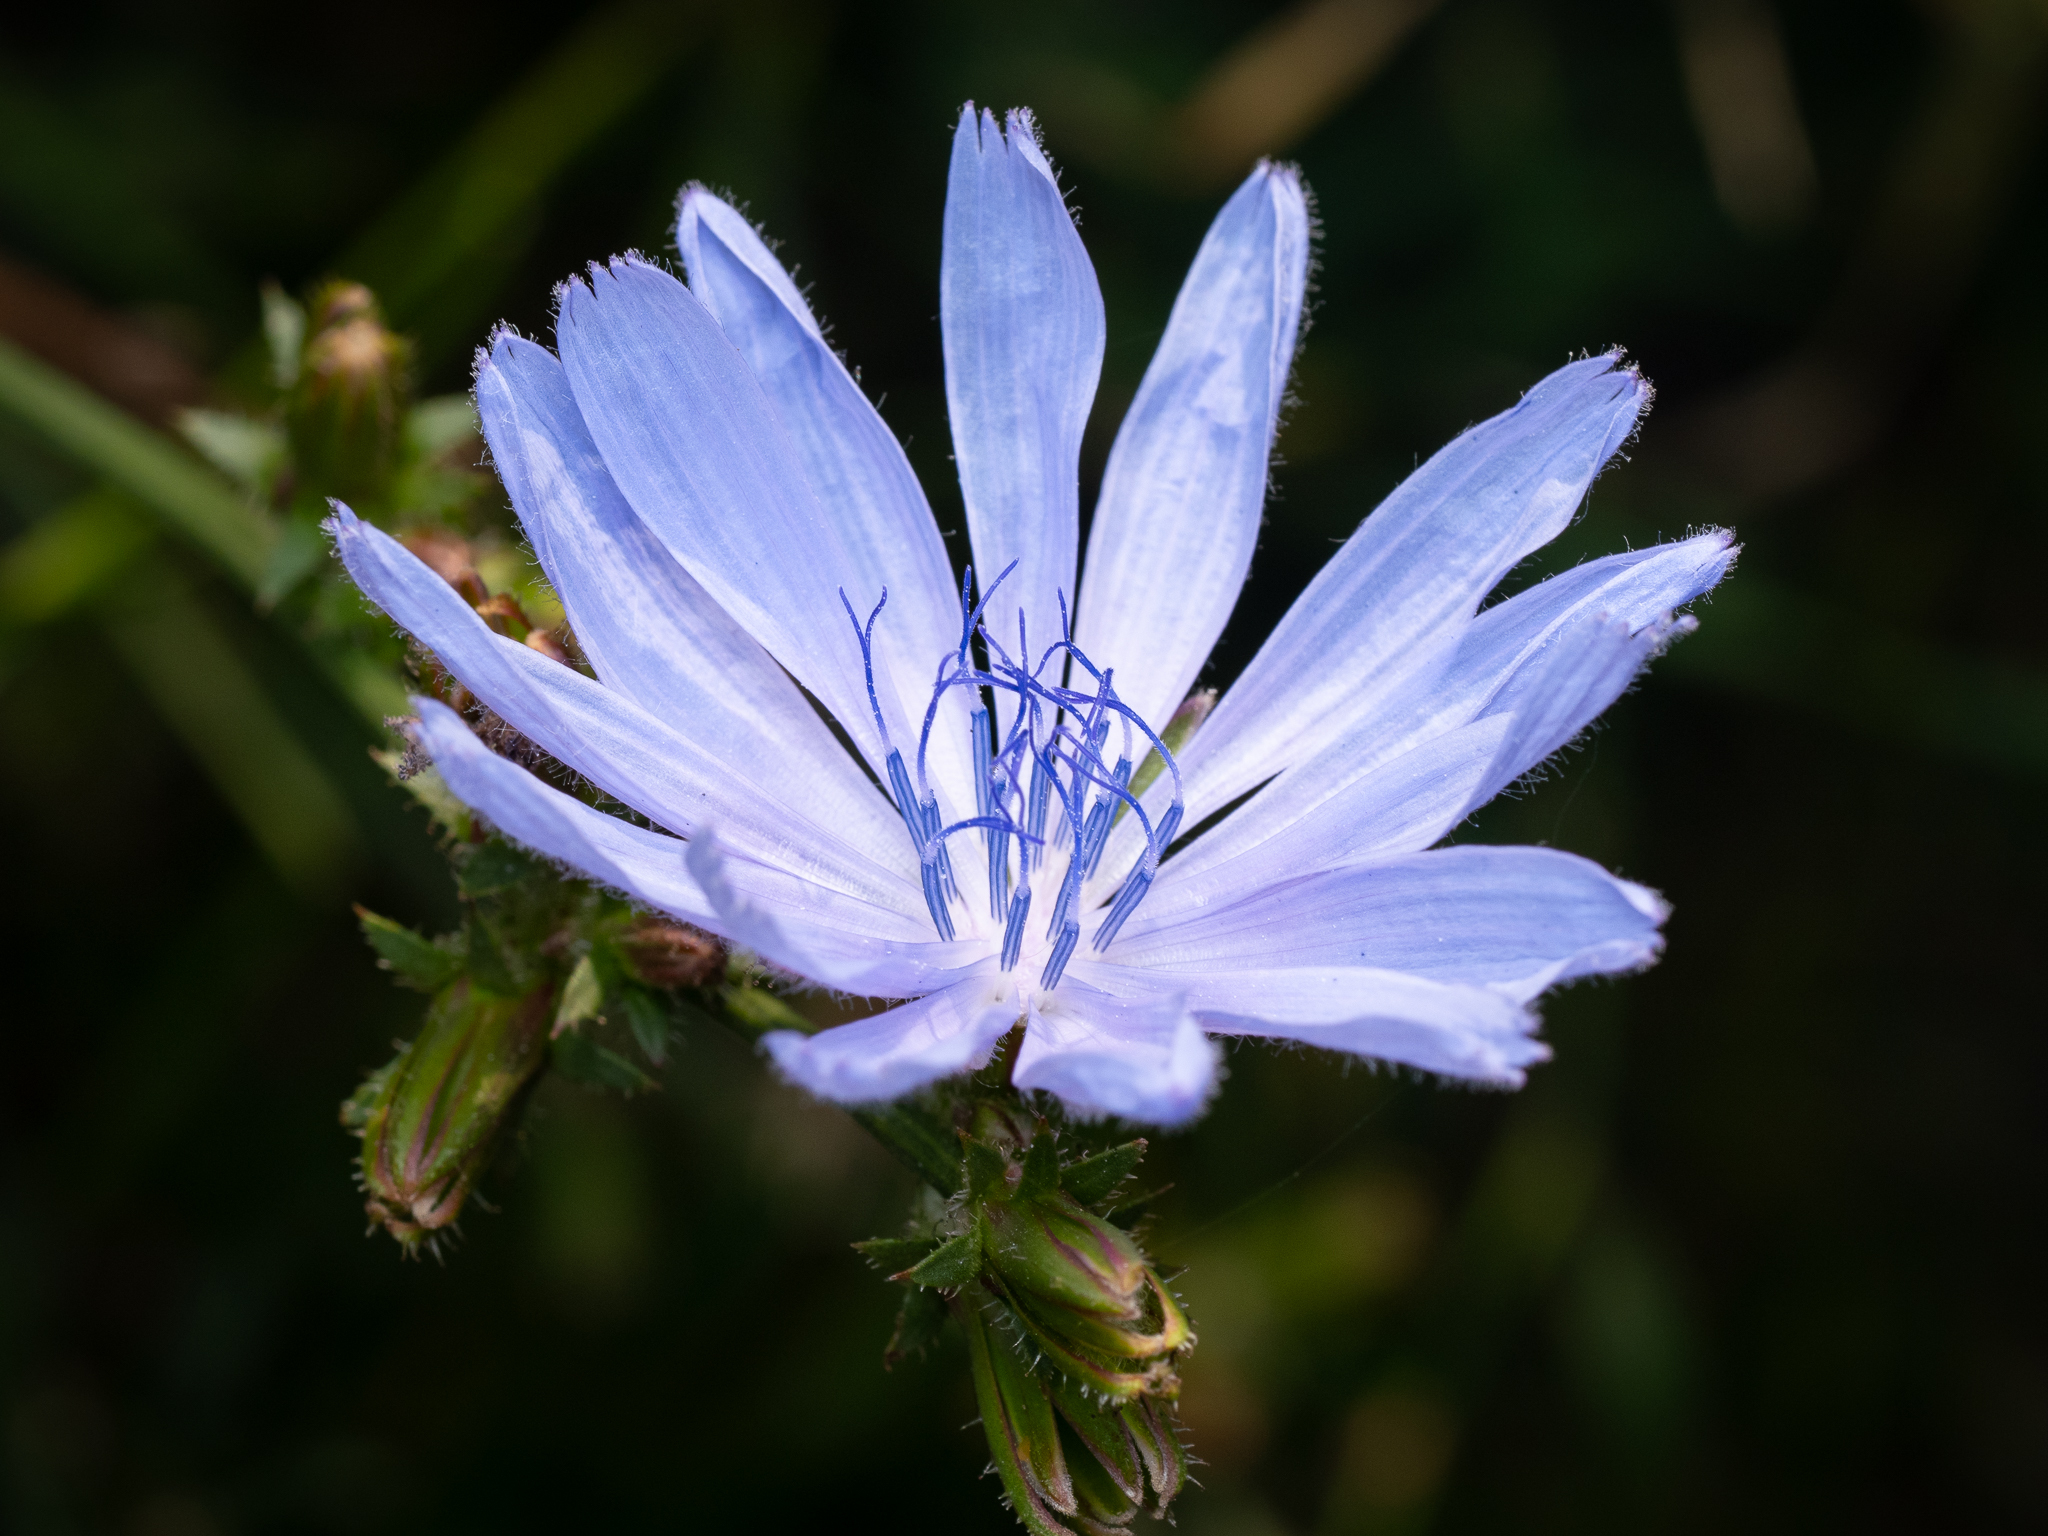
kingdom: Plantae
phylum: Tracheophyta
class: Magnoliopsida
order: Asterales
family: Asteraceae
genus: Cichorium
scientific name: Cichorium intybus
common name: Chicory
